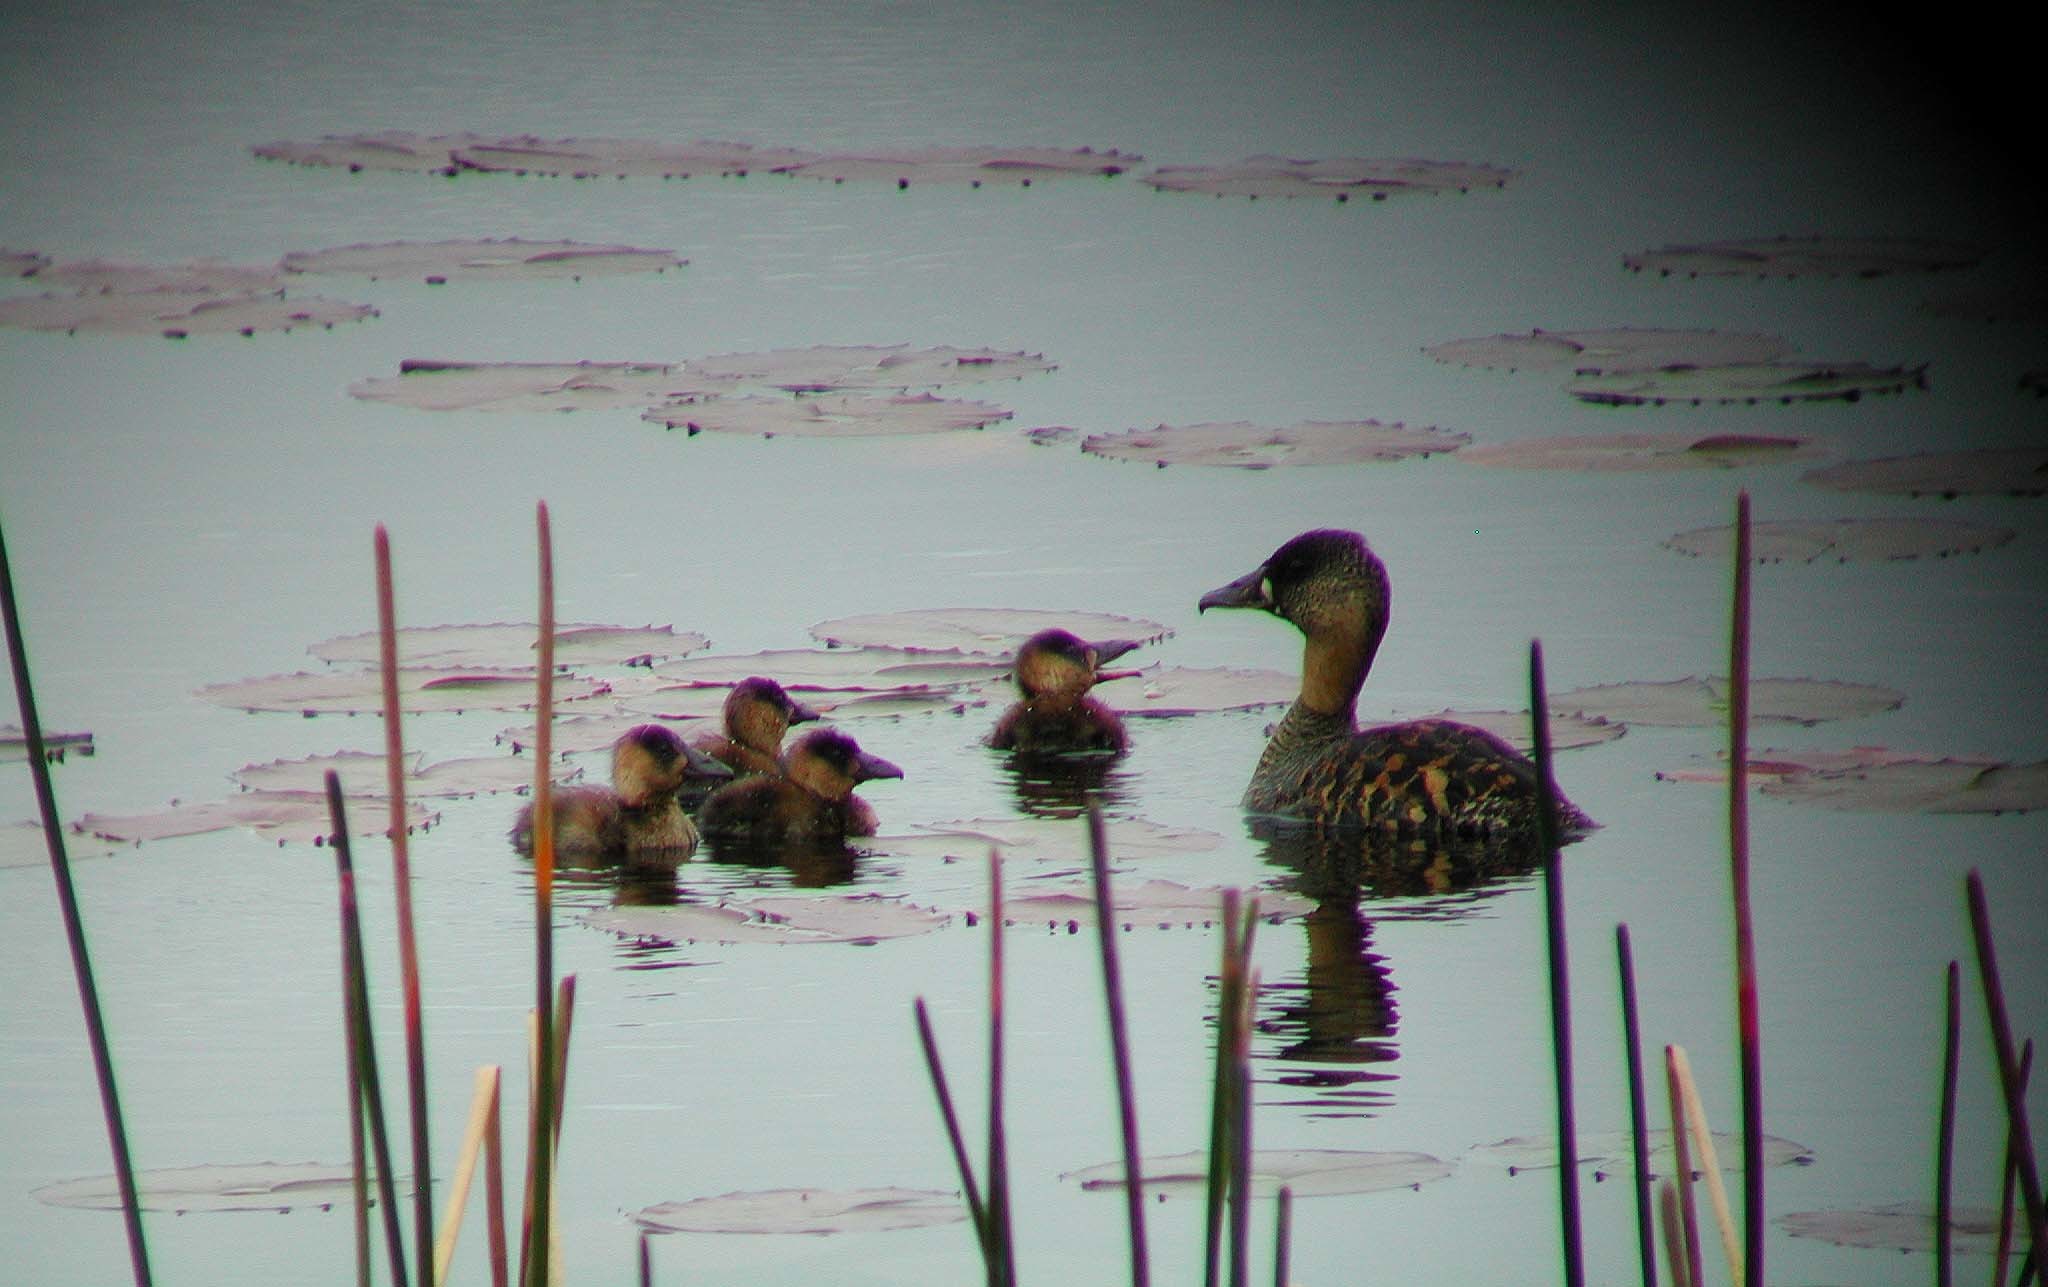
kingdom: Animalia
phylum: Chordata
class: Aves
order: Anseriformes
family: Anatidae
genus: Thalassornis
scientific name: Thalassornis leuconotus
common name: White-backed duck
